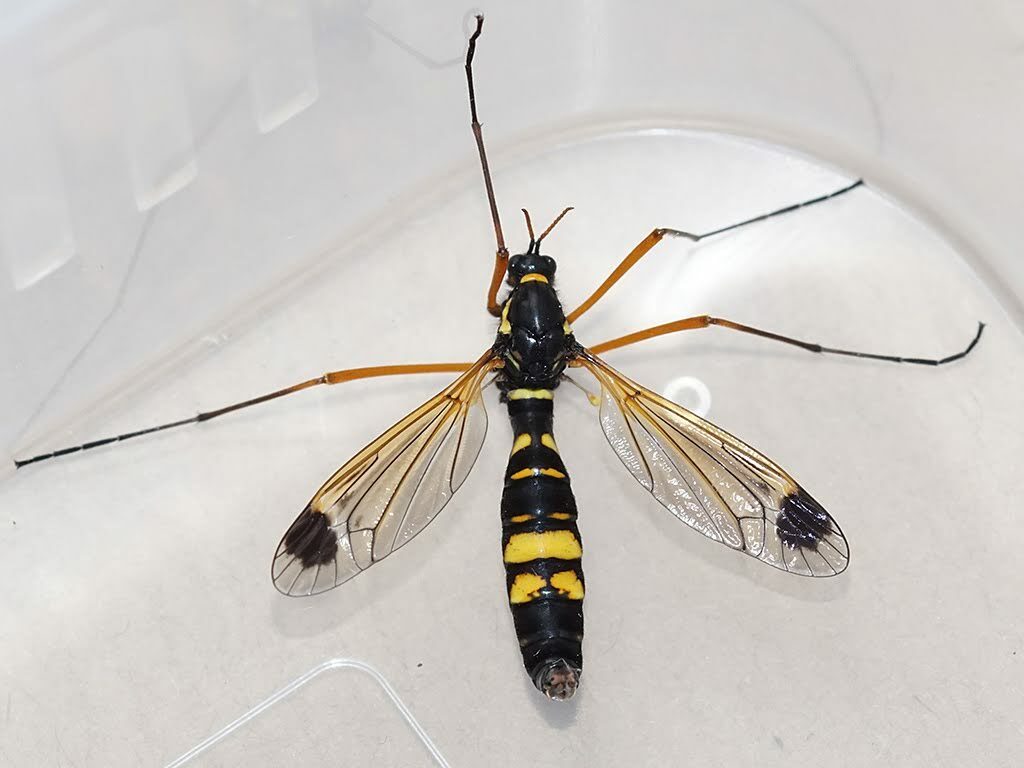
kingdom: Animalia
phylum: Arthropoda
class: Insecta
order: Diptera
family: Tipulidae
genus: Ctenophora
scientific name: Ctenophora festiva
